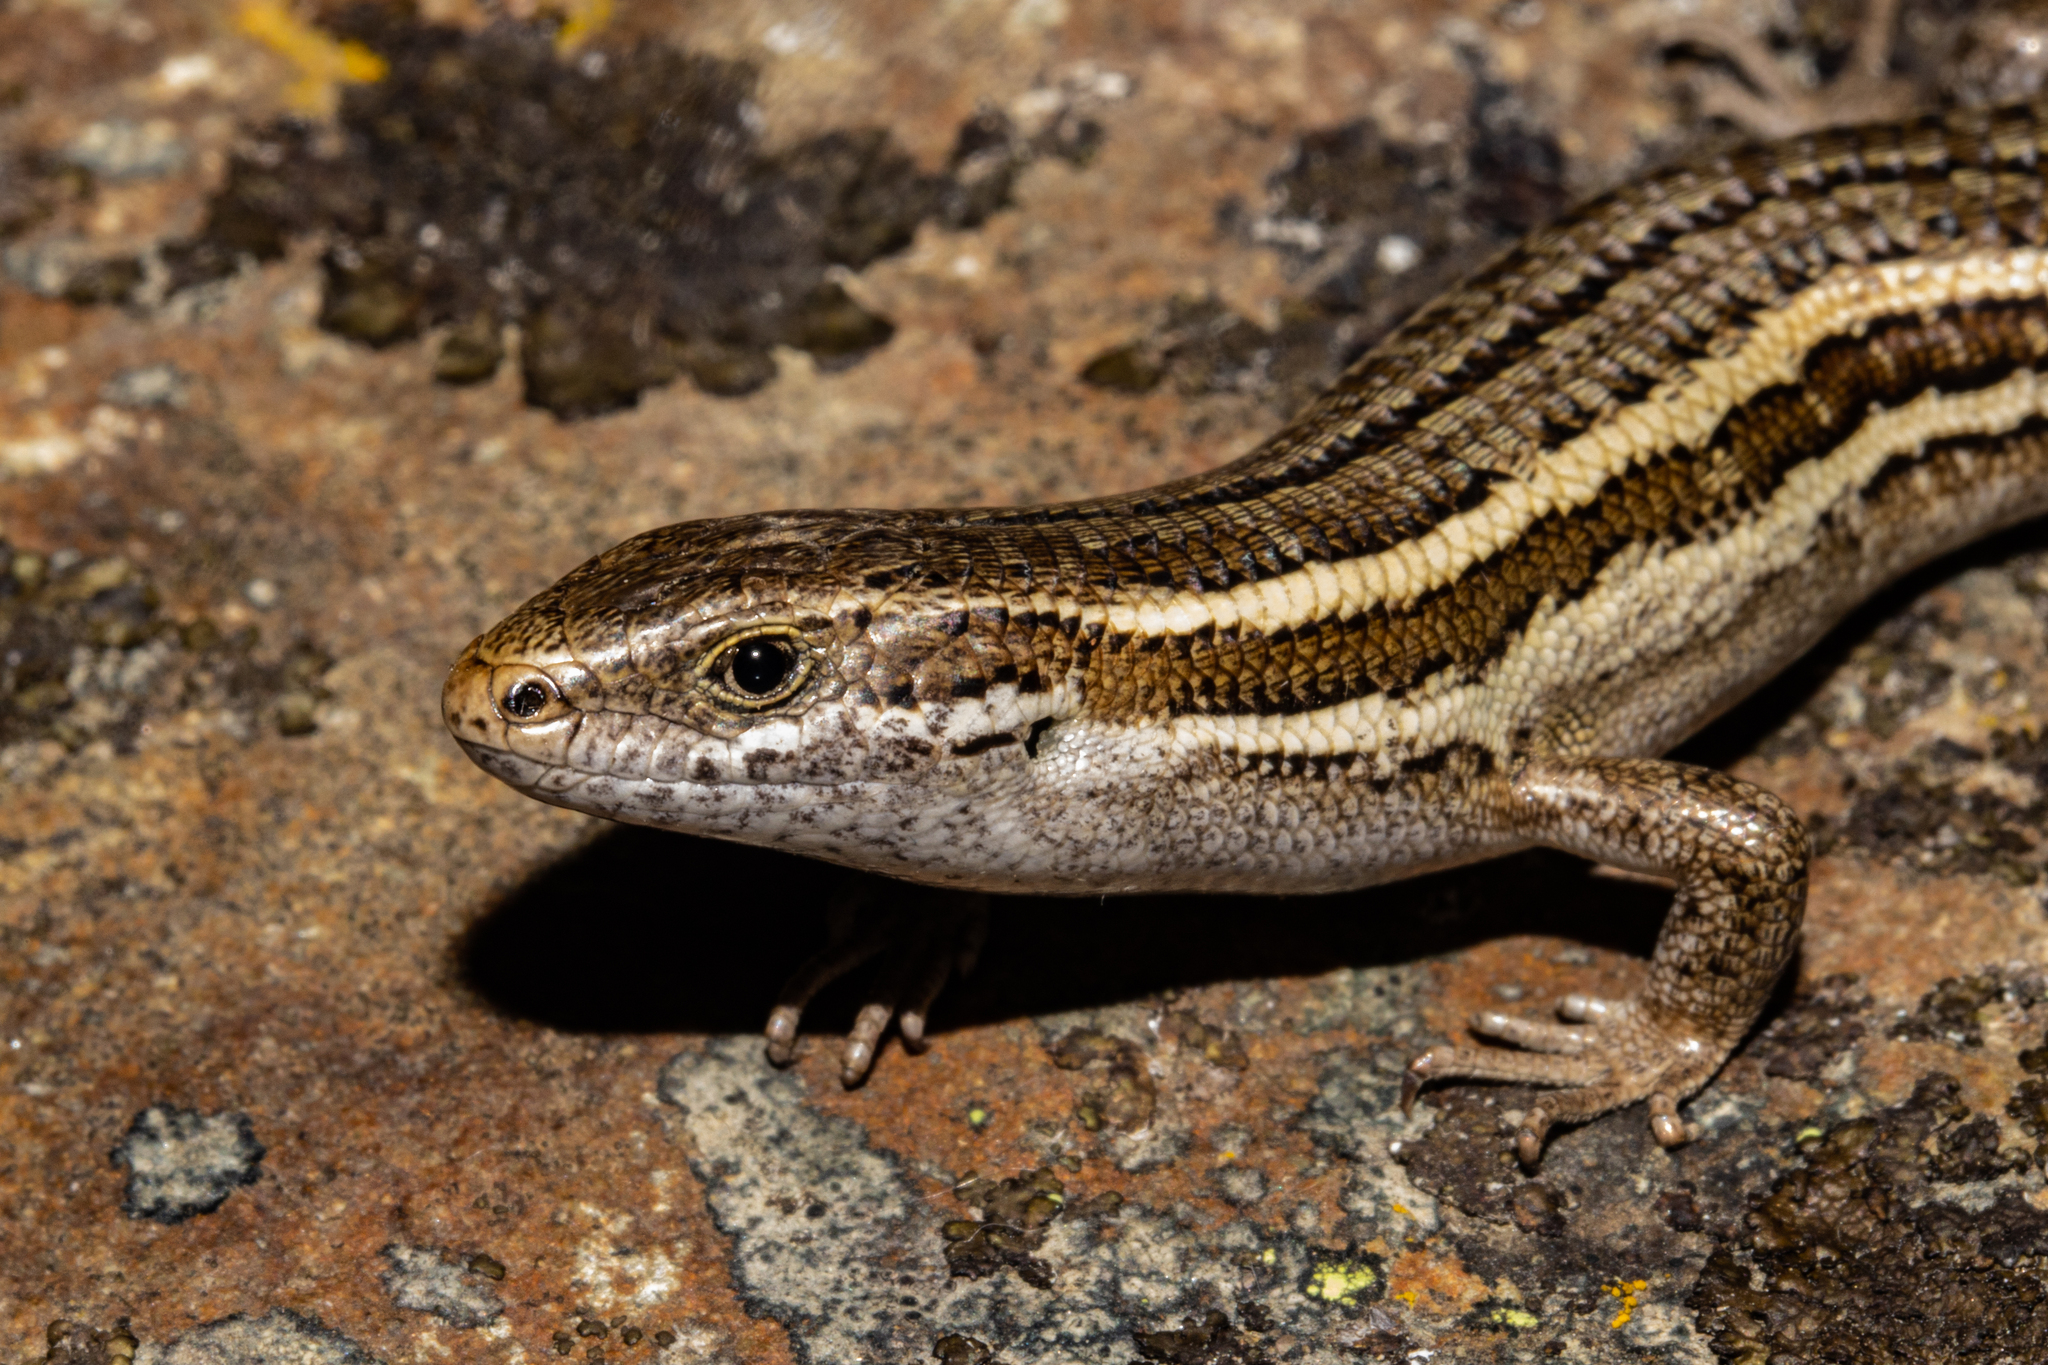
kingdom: Animalia
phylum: Chordata
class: Squamata
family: Scincidae
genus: Oligosoma
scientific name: Oligosoma maccanni
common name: Mccann’s skink
